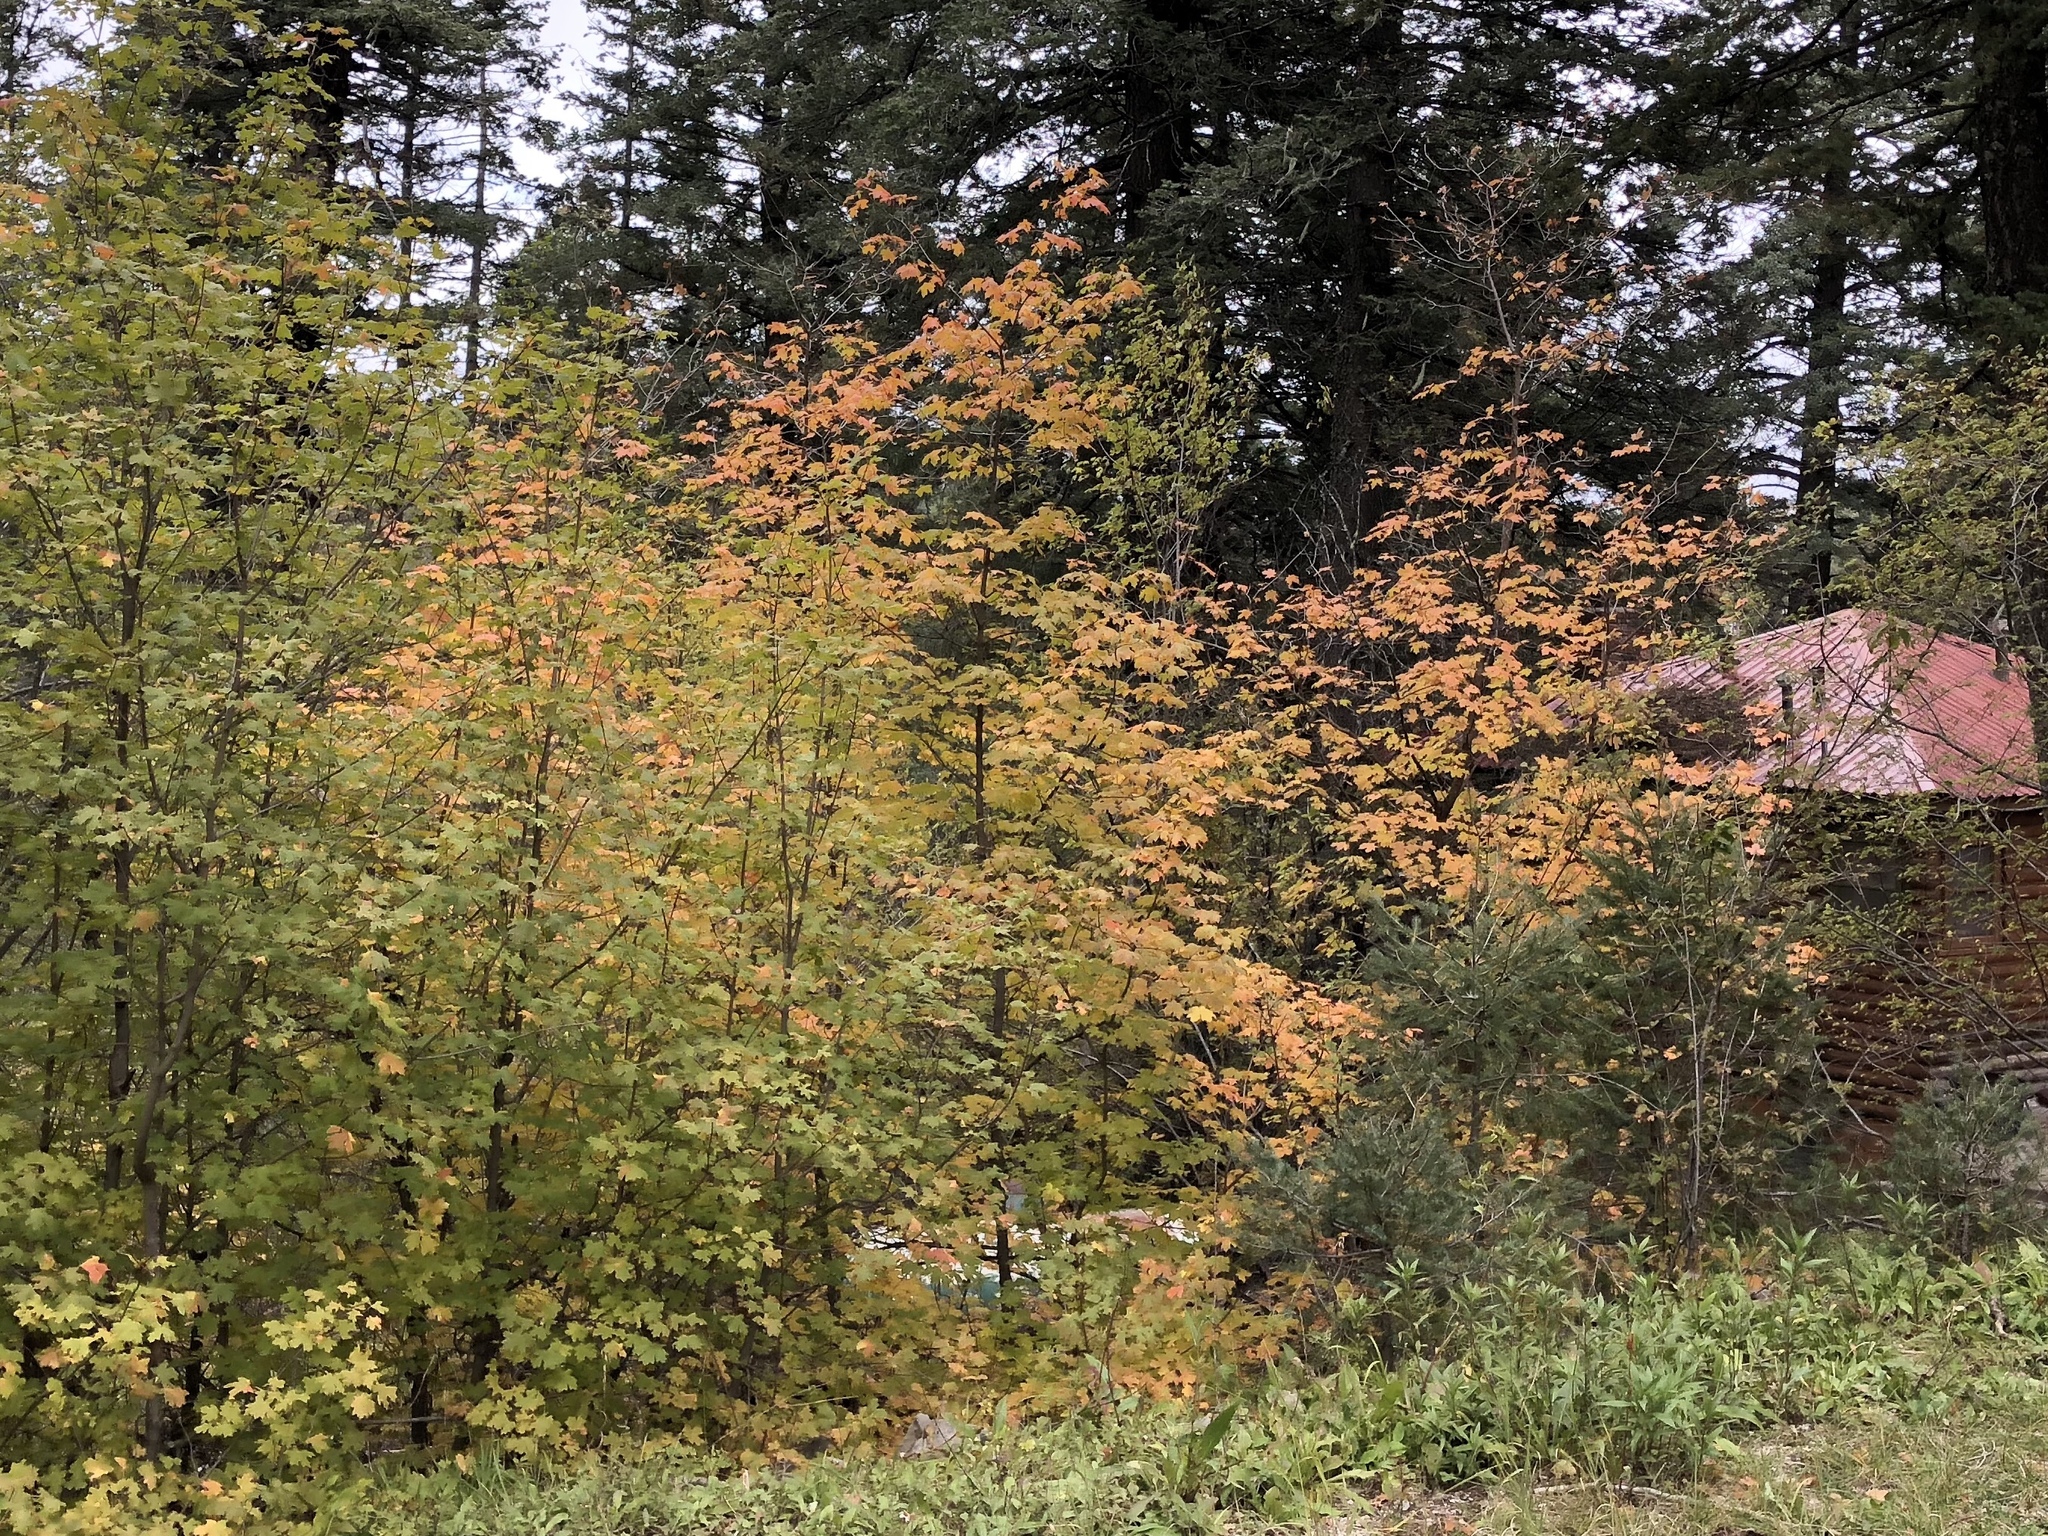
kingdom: Plantae
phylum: Tracheophyta
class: Magnoliopsida
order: Sapindales
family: Sapindaceae
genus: Acer
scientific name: Acer grandidentatum
